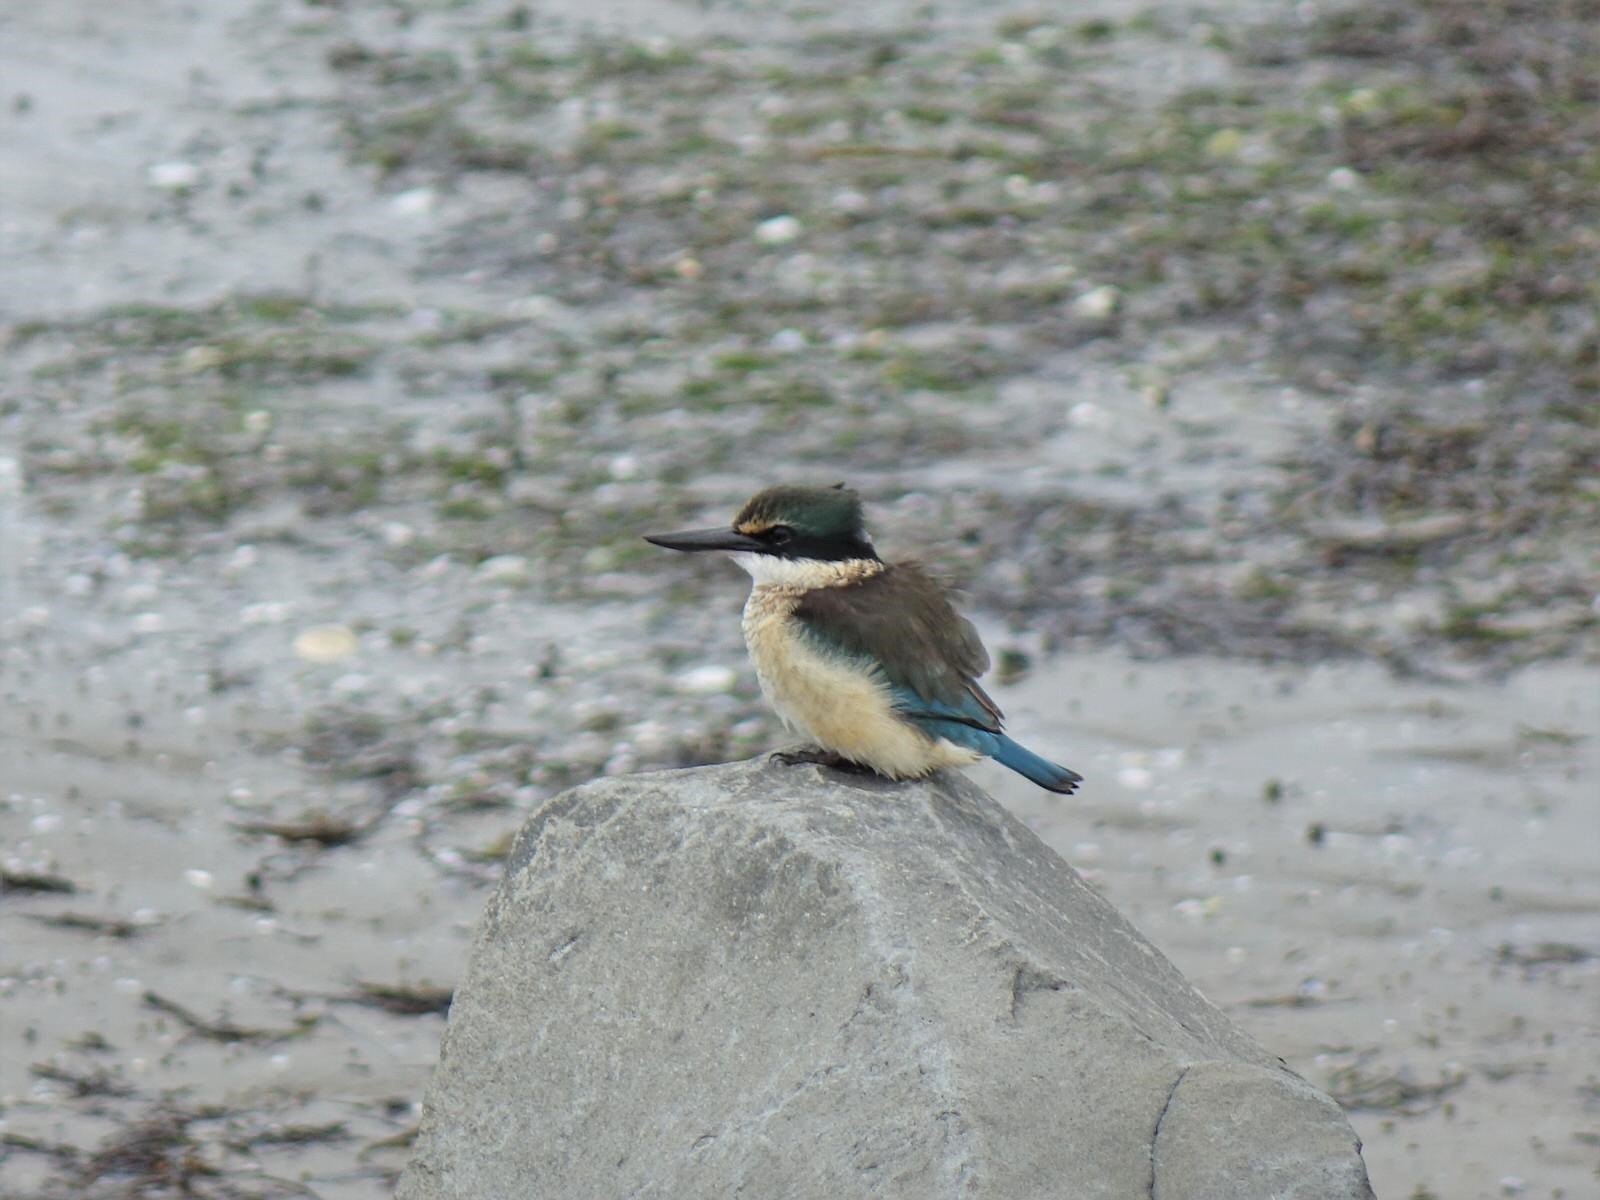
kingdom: Animalia
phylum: Chordata
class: Aves
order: Coraciiformes
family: Alcedinidae
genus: Todiramphus
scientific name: Todiramphus sanctus
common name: Sacred kingfisher
